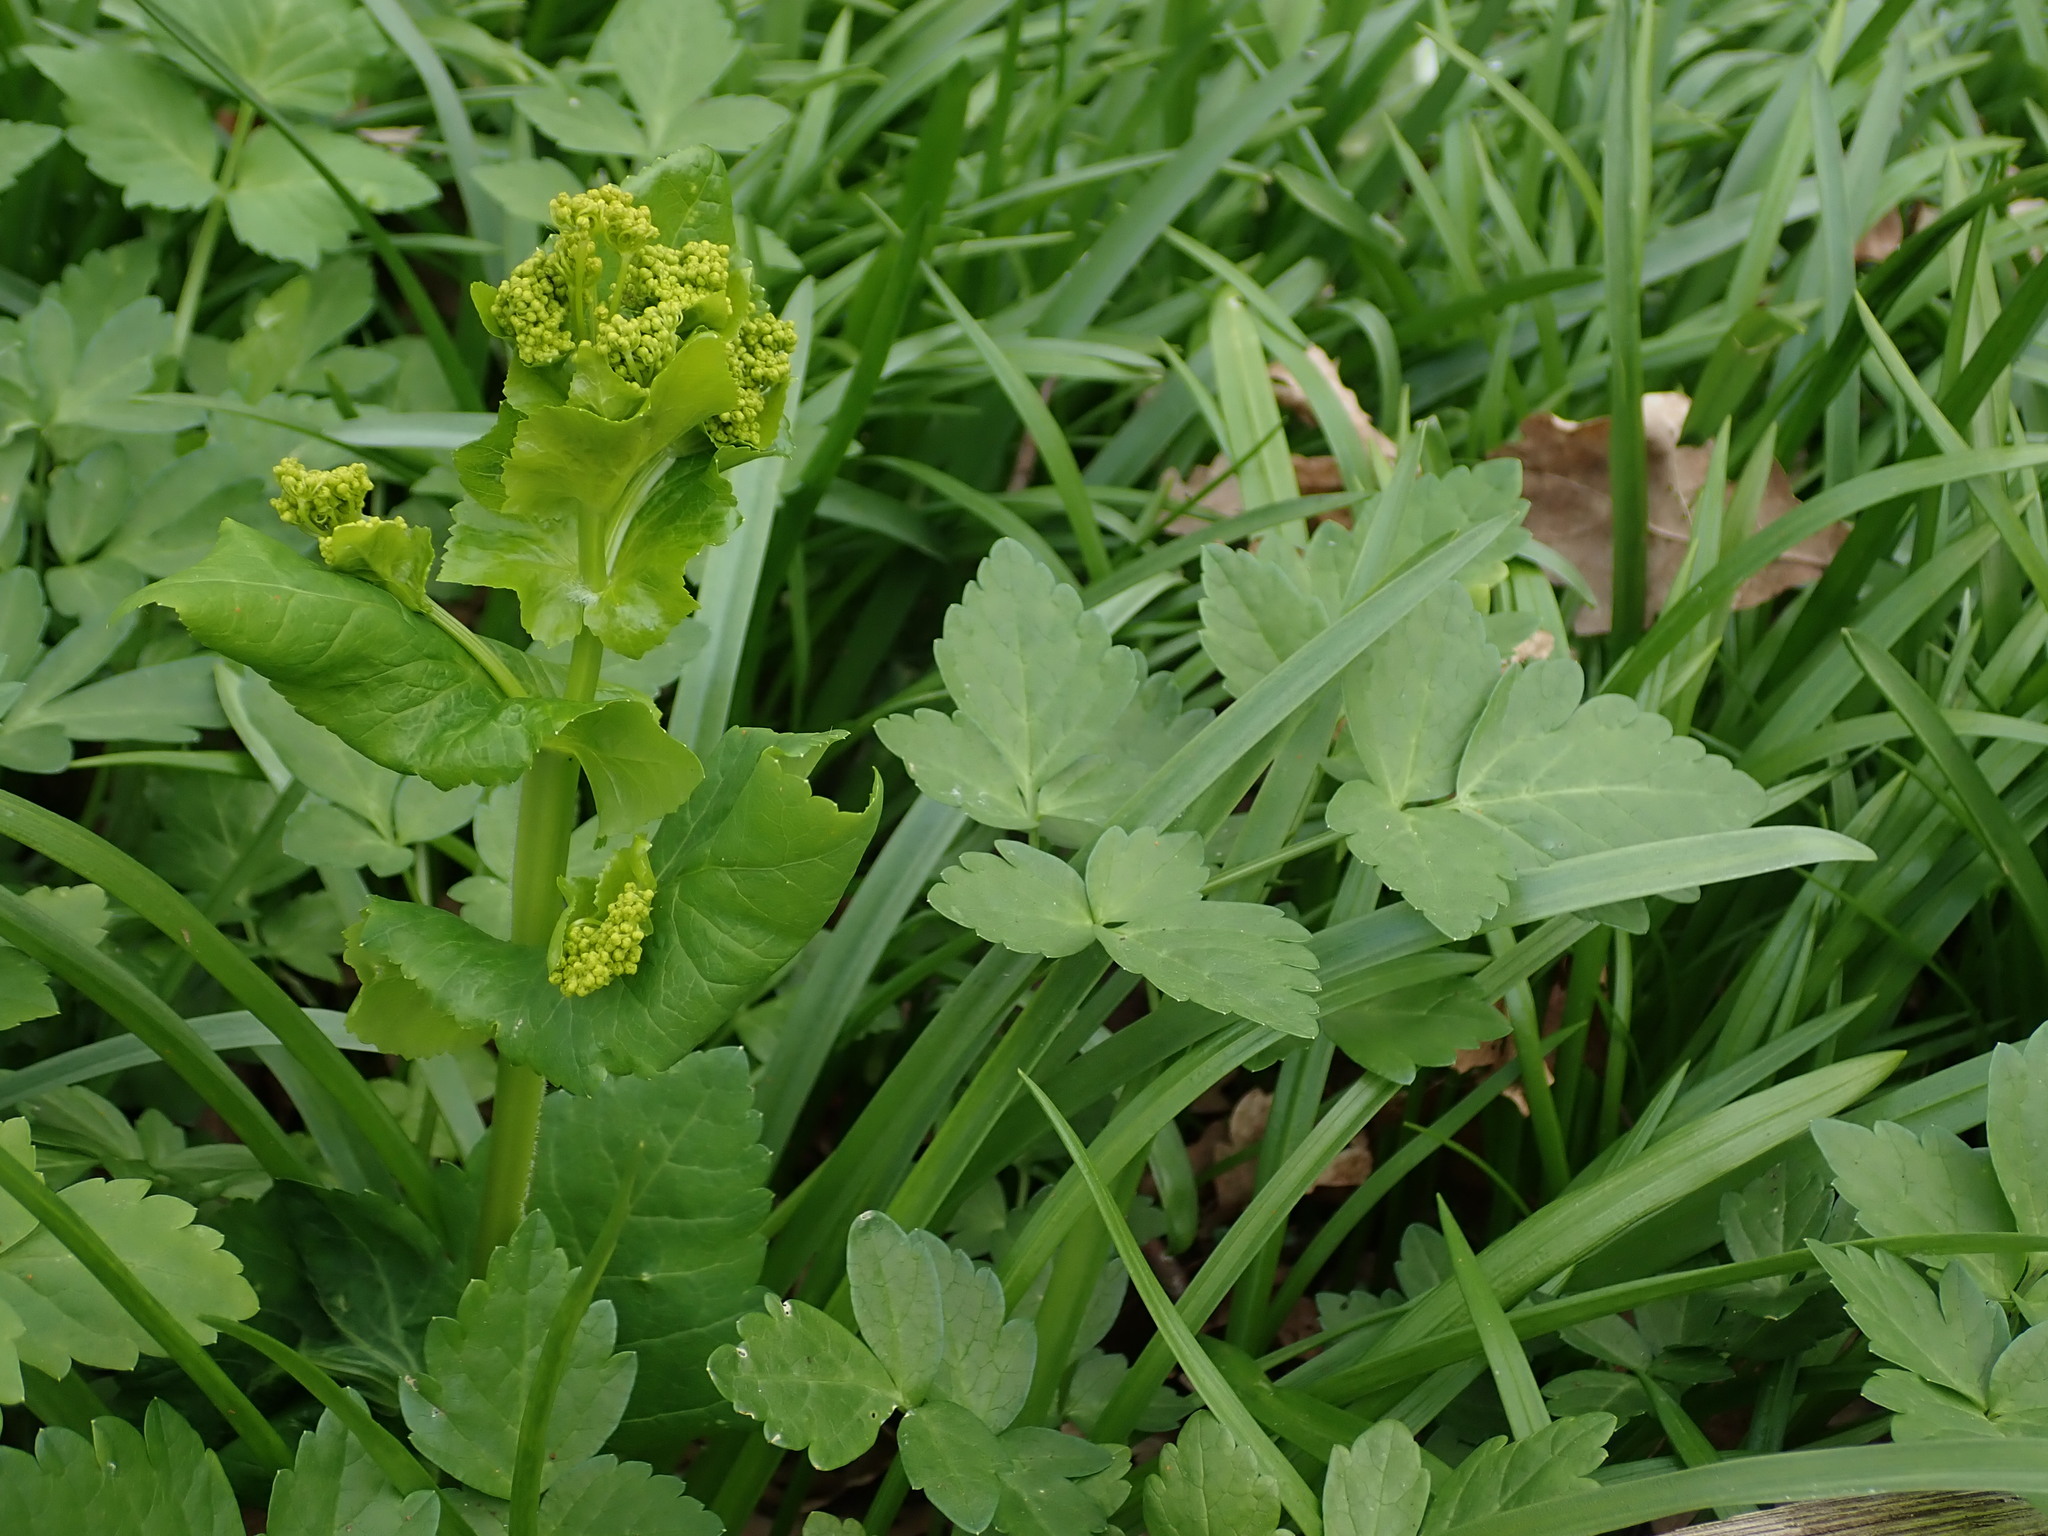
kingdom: Plantae
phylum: Tracheophyta
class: Magnoliopsida
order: Apiales
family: Apiaceae
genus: Smyrnium
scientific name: Smyrnium perfoliatum
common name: Perfoliate alexanders
